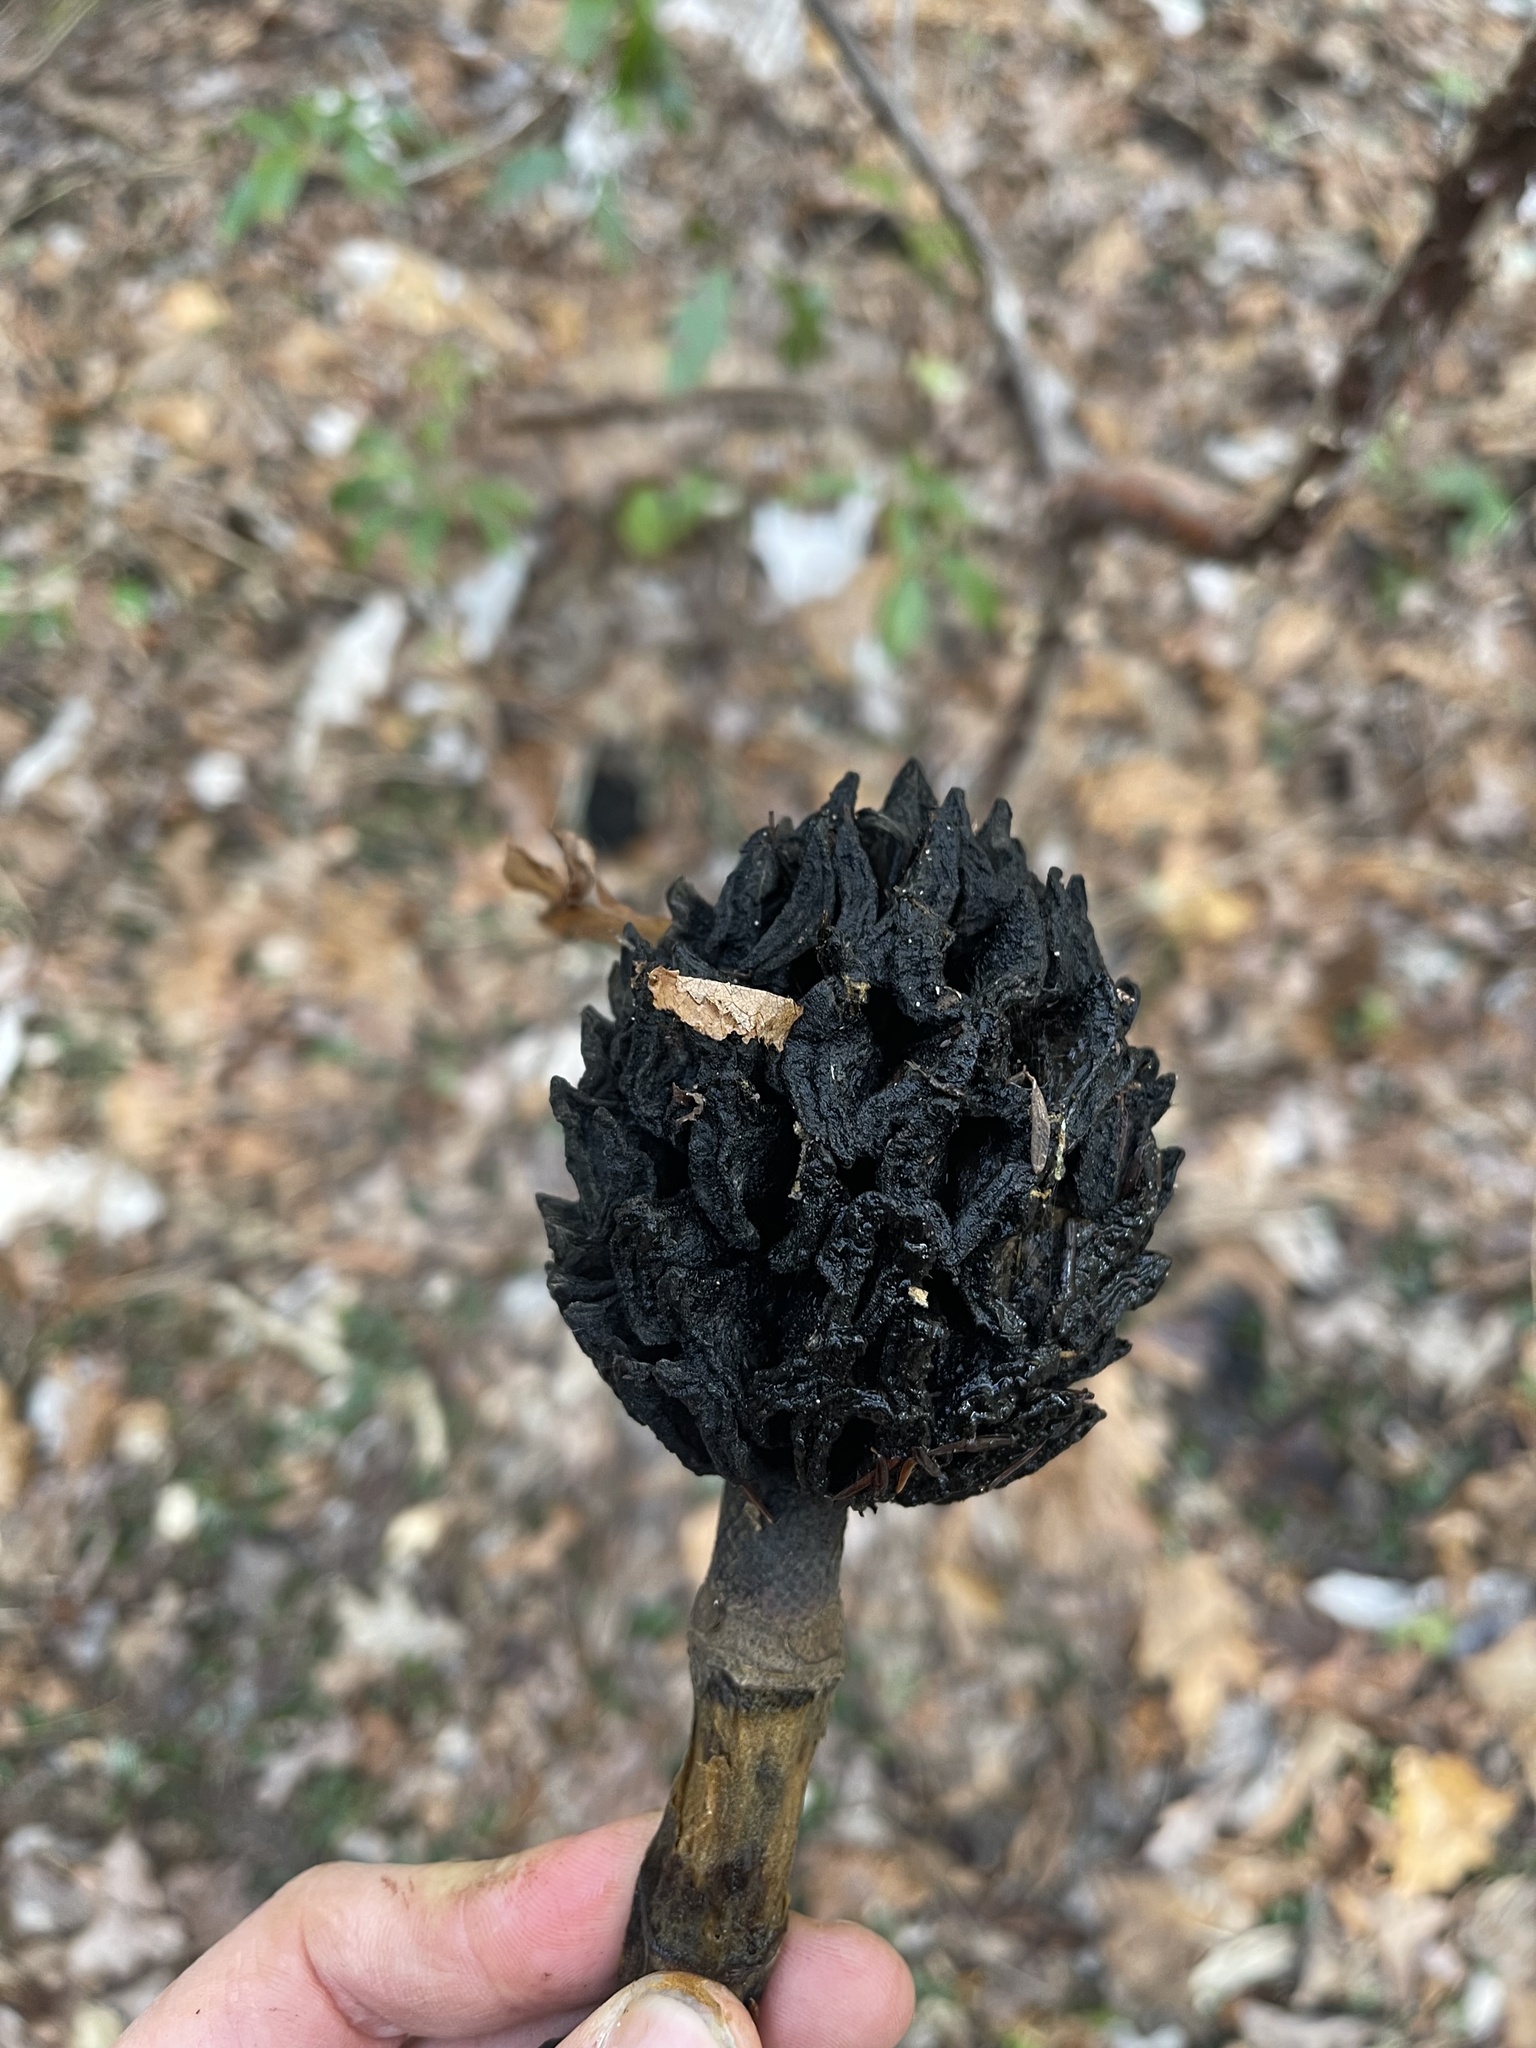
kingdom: Plantae
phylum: Tracheophyta
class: Magnoliopsida
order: Magnoliales
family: Magnoliaceae
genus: Magnolia
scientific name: Magnolia macrophylla
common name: Big-leaf magnolia
